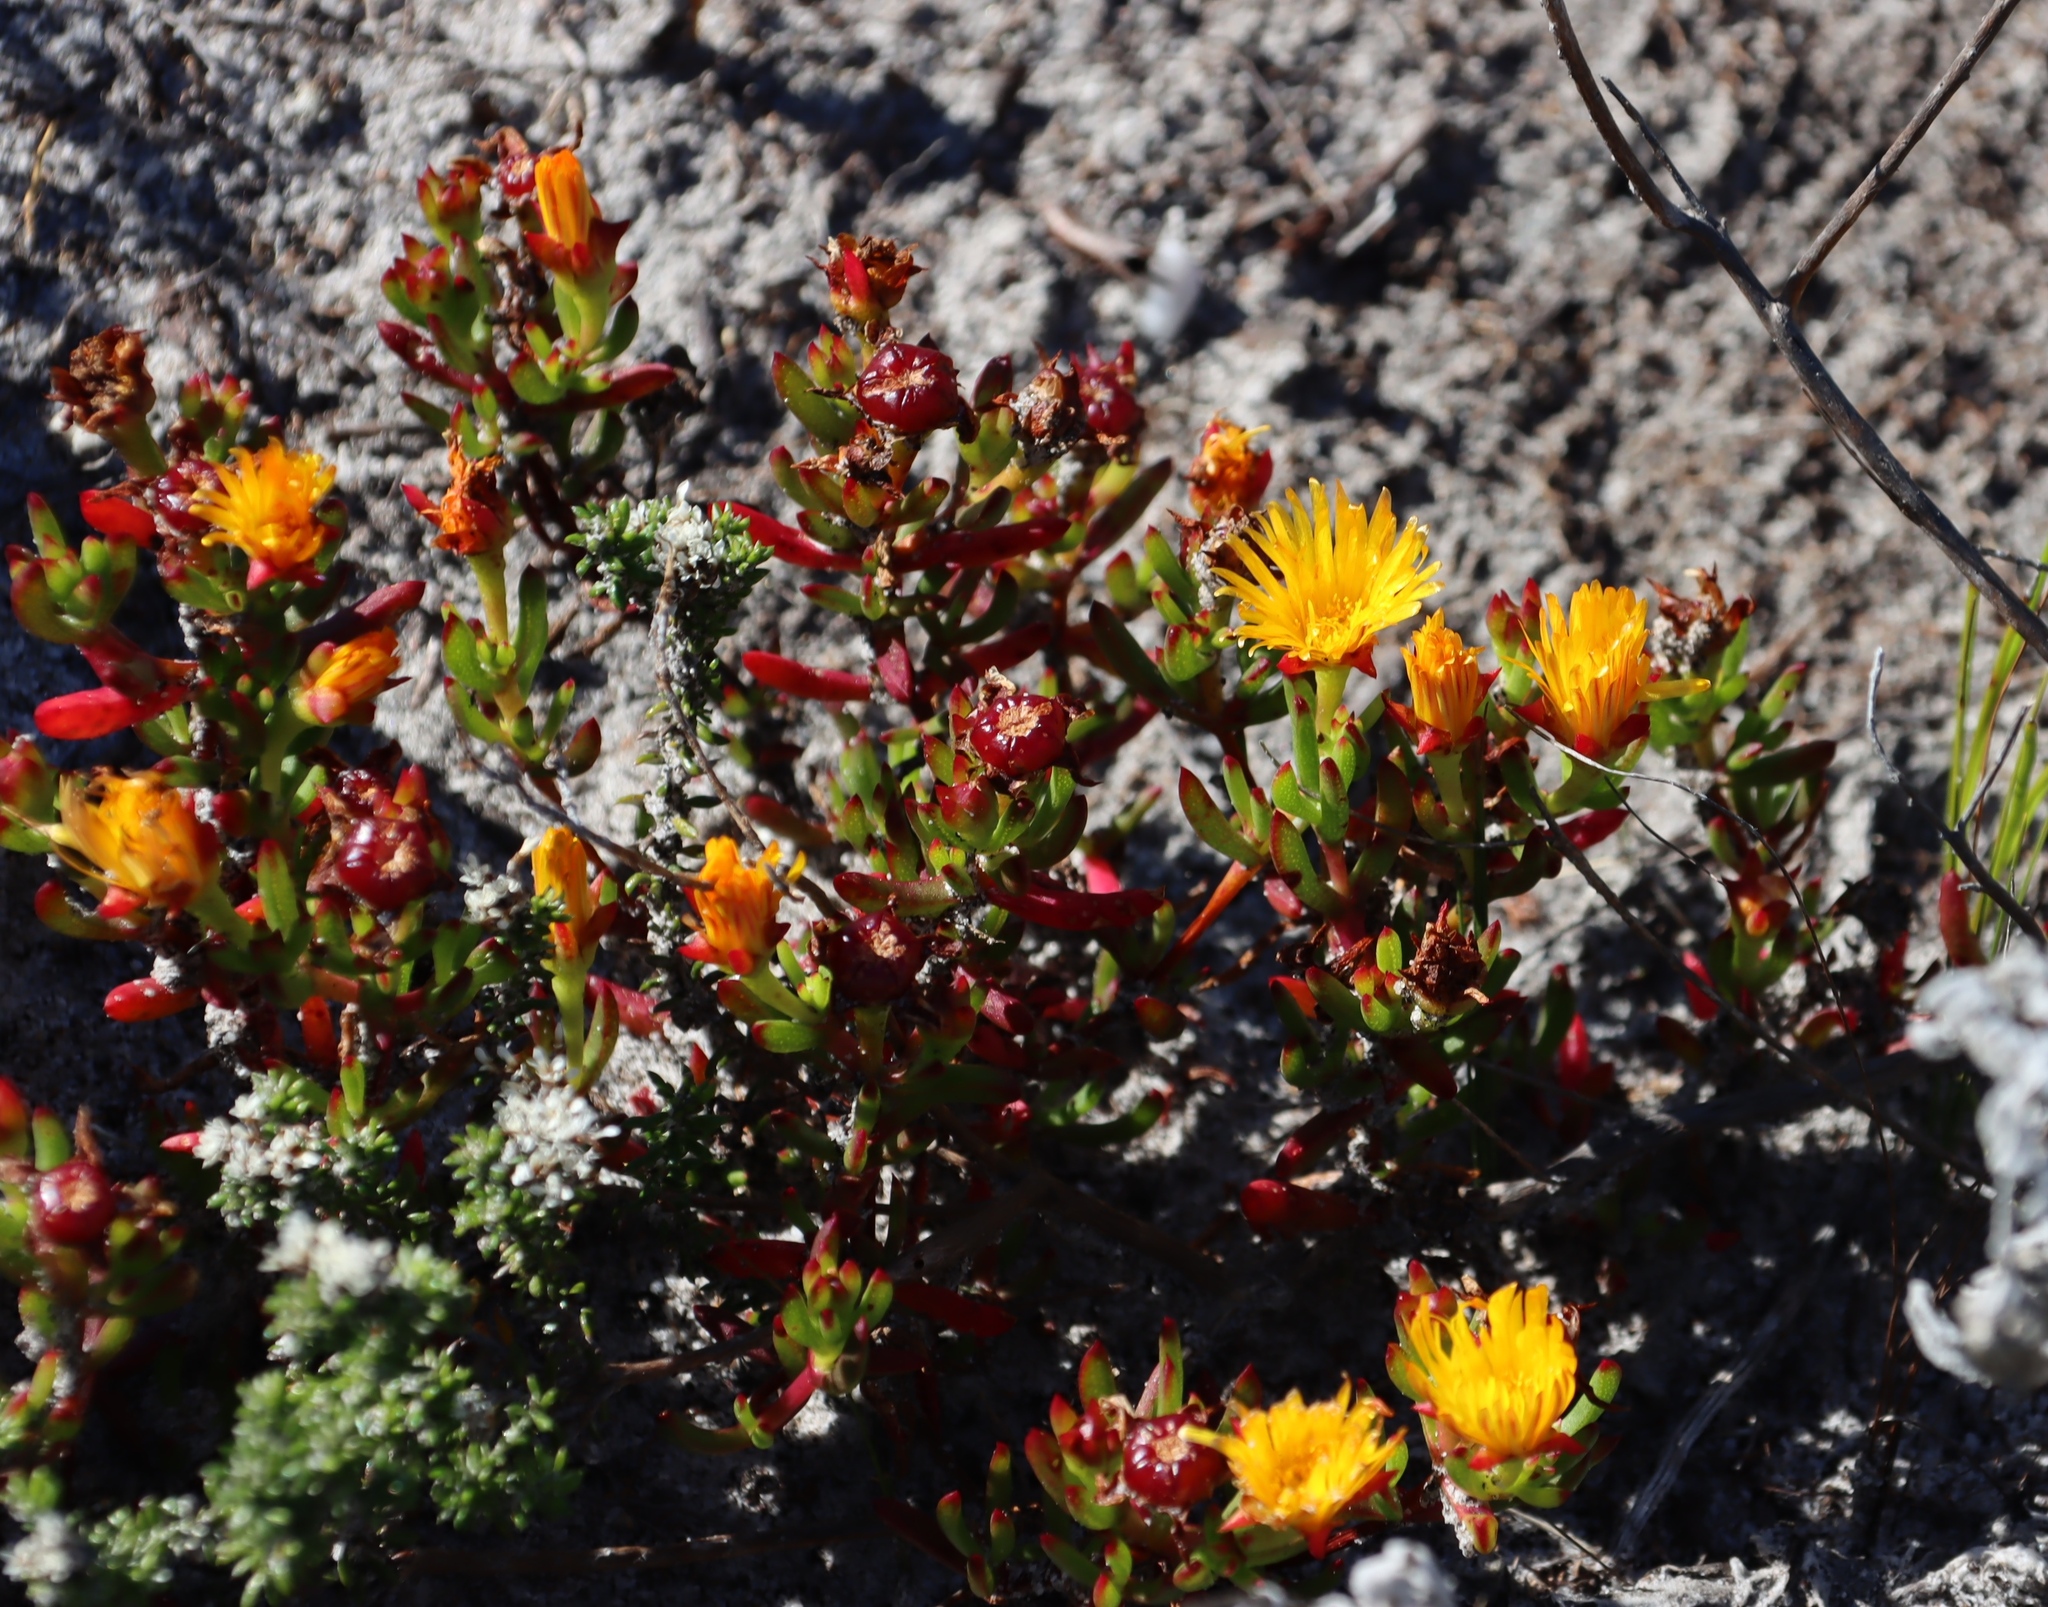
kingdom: Plantae
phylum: Tracheophyta
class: Magnoliopsida
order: Caryophyllales
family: Aizoaceae
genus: Lampranthus
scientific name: Lampranthus promontorii
